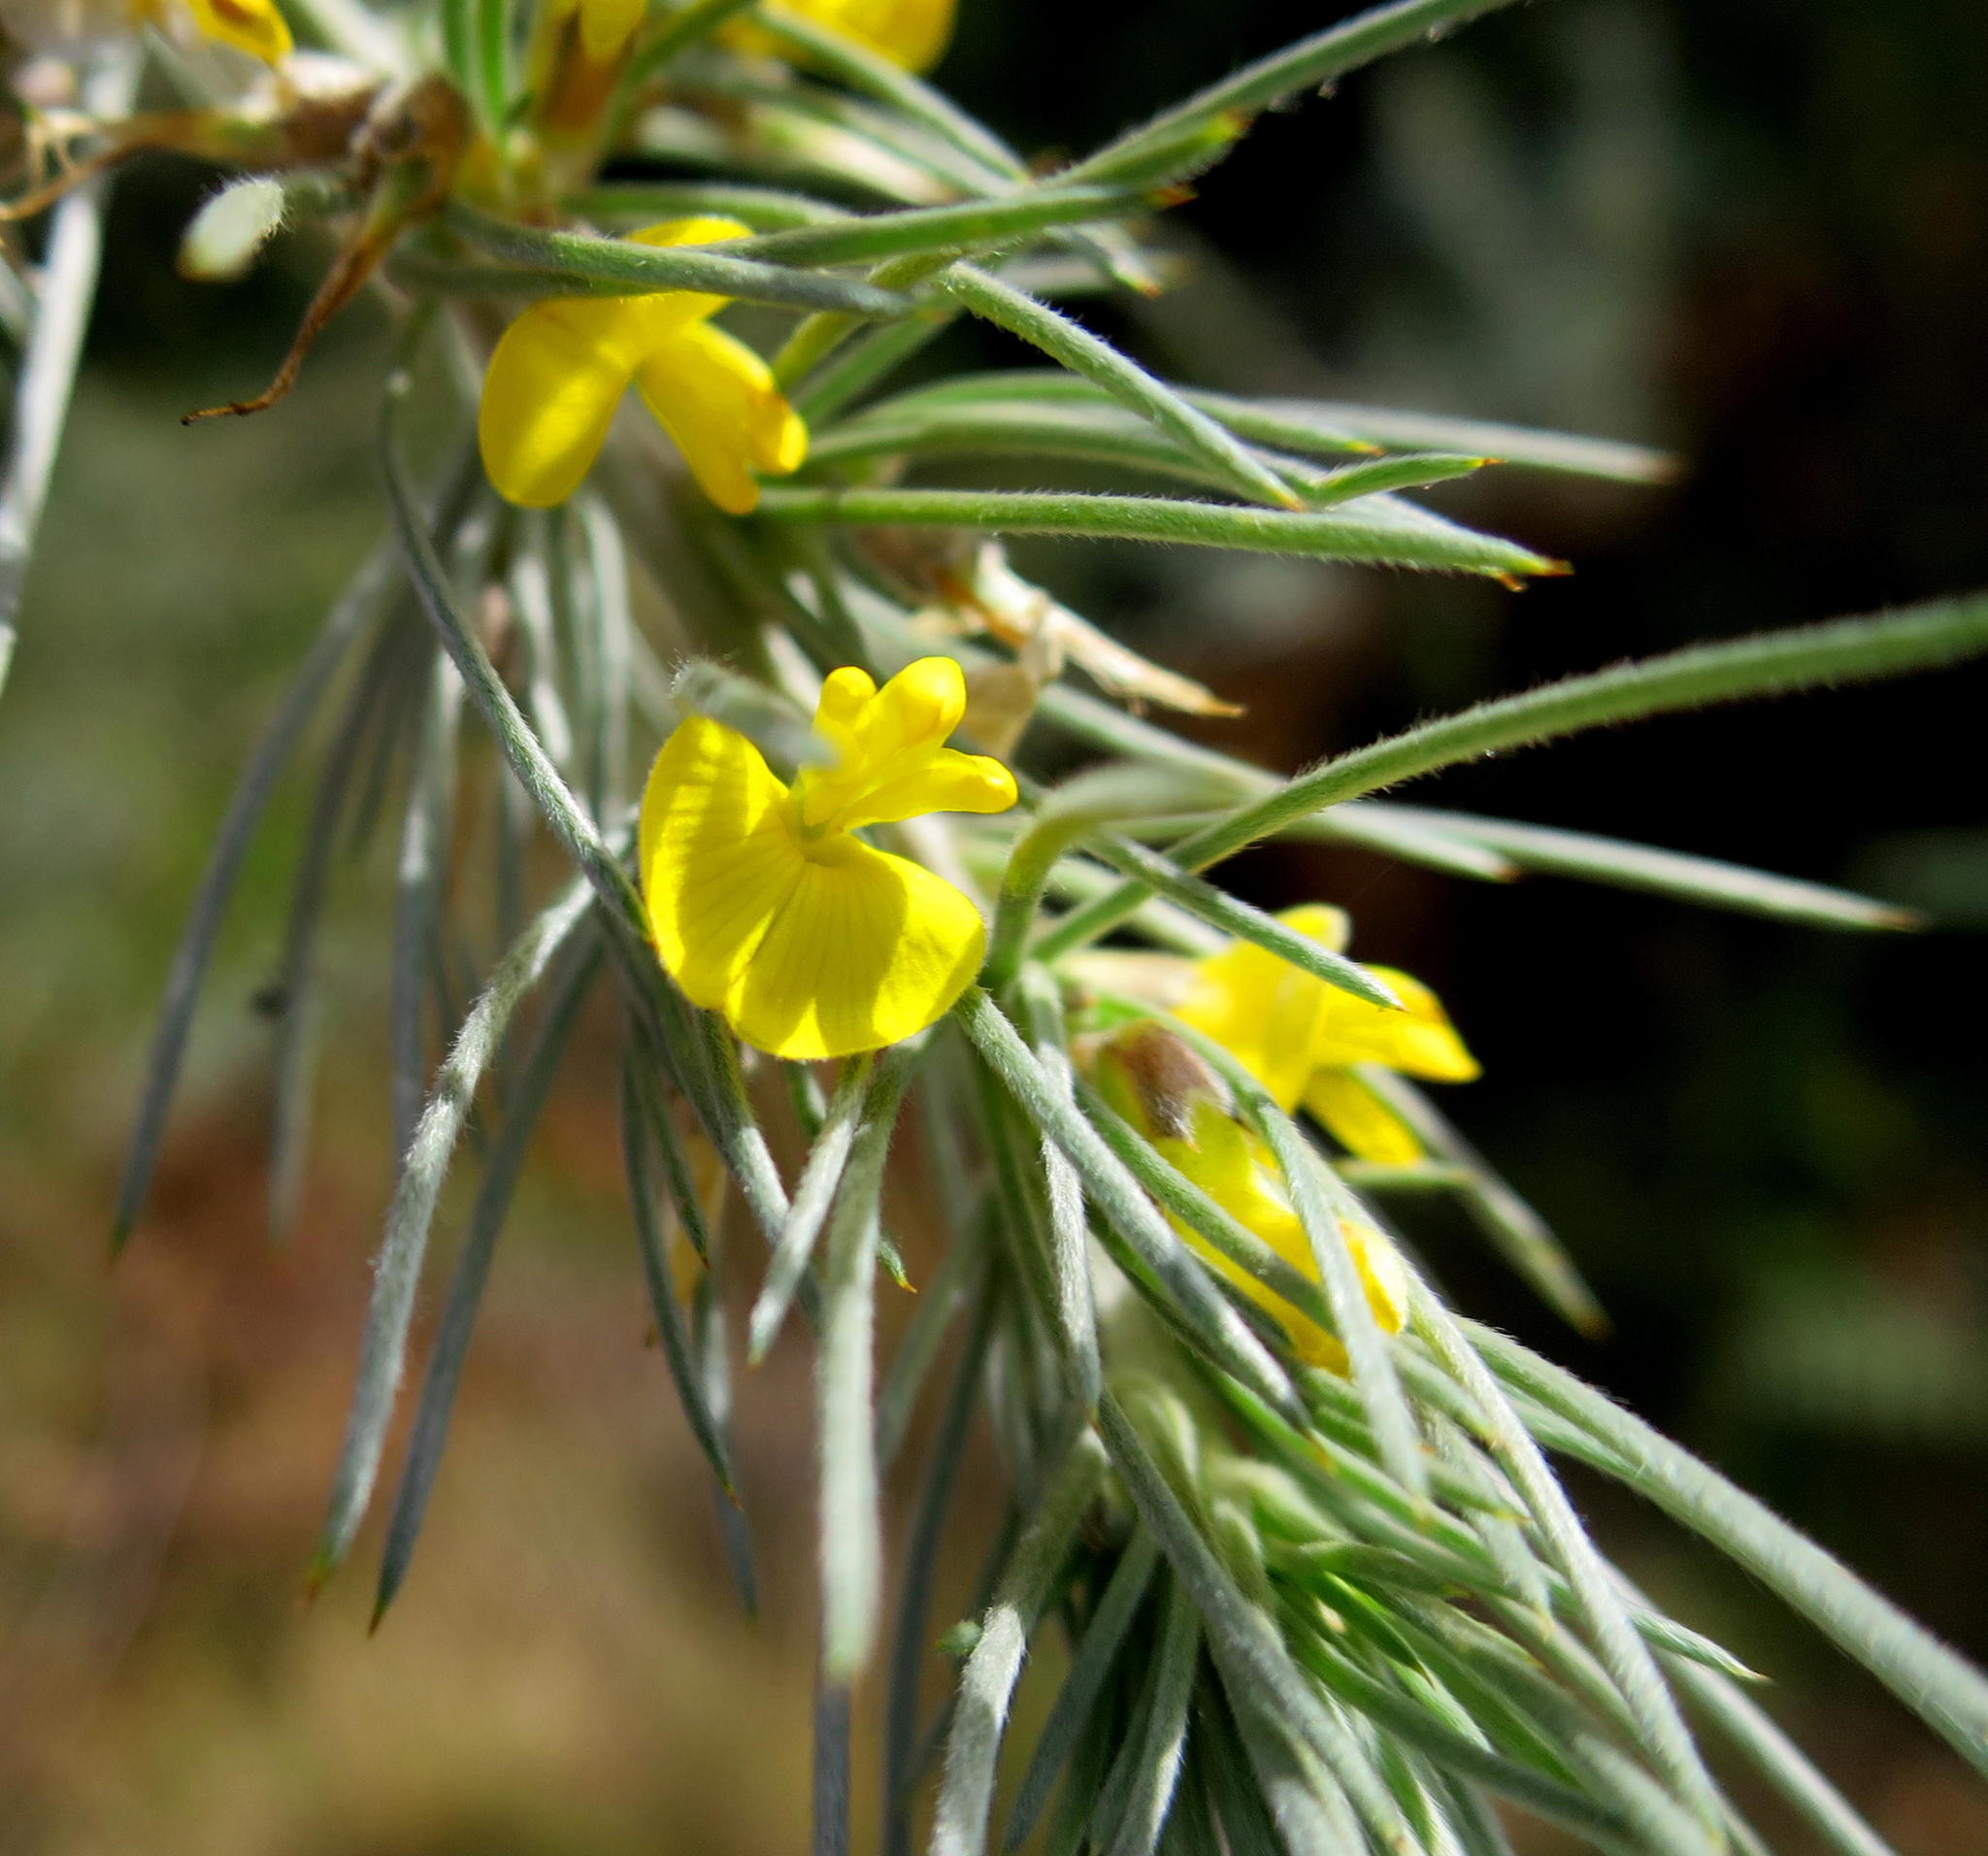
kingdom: Plantae
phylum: Tracheophyta
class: Magnoliopsida
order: Fabales
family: Fabaceae
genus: Aspalathus
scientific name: Aspalathus florifera
